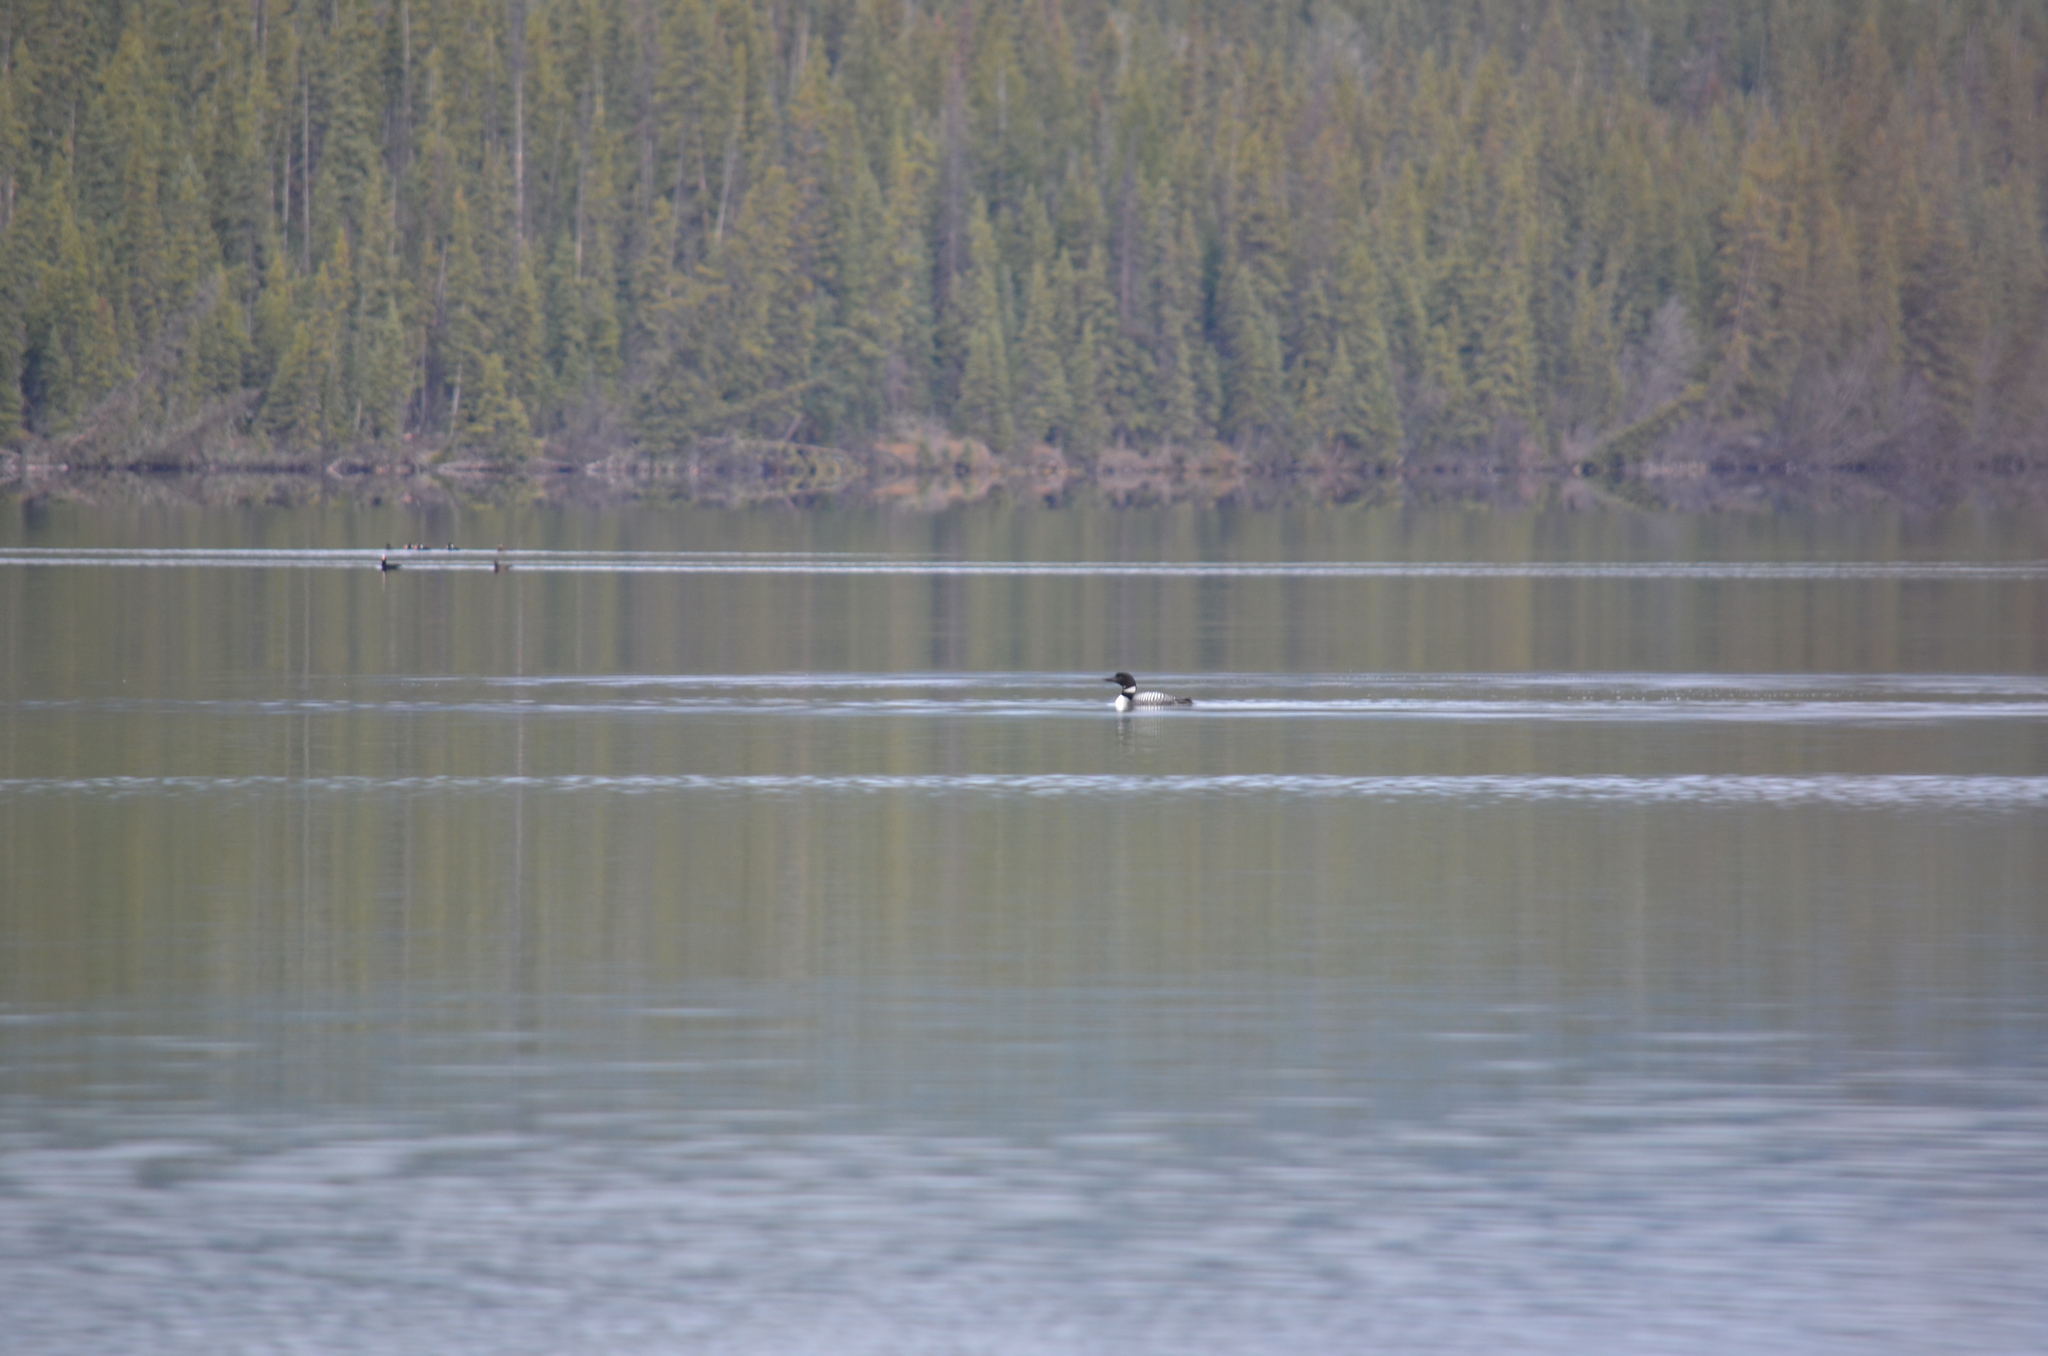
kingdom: Animalia
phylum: Chordata
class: Aves
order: Gaviiformes
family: Gaviidae
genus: Gavia
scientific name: Gavia immer
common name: Common loon
